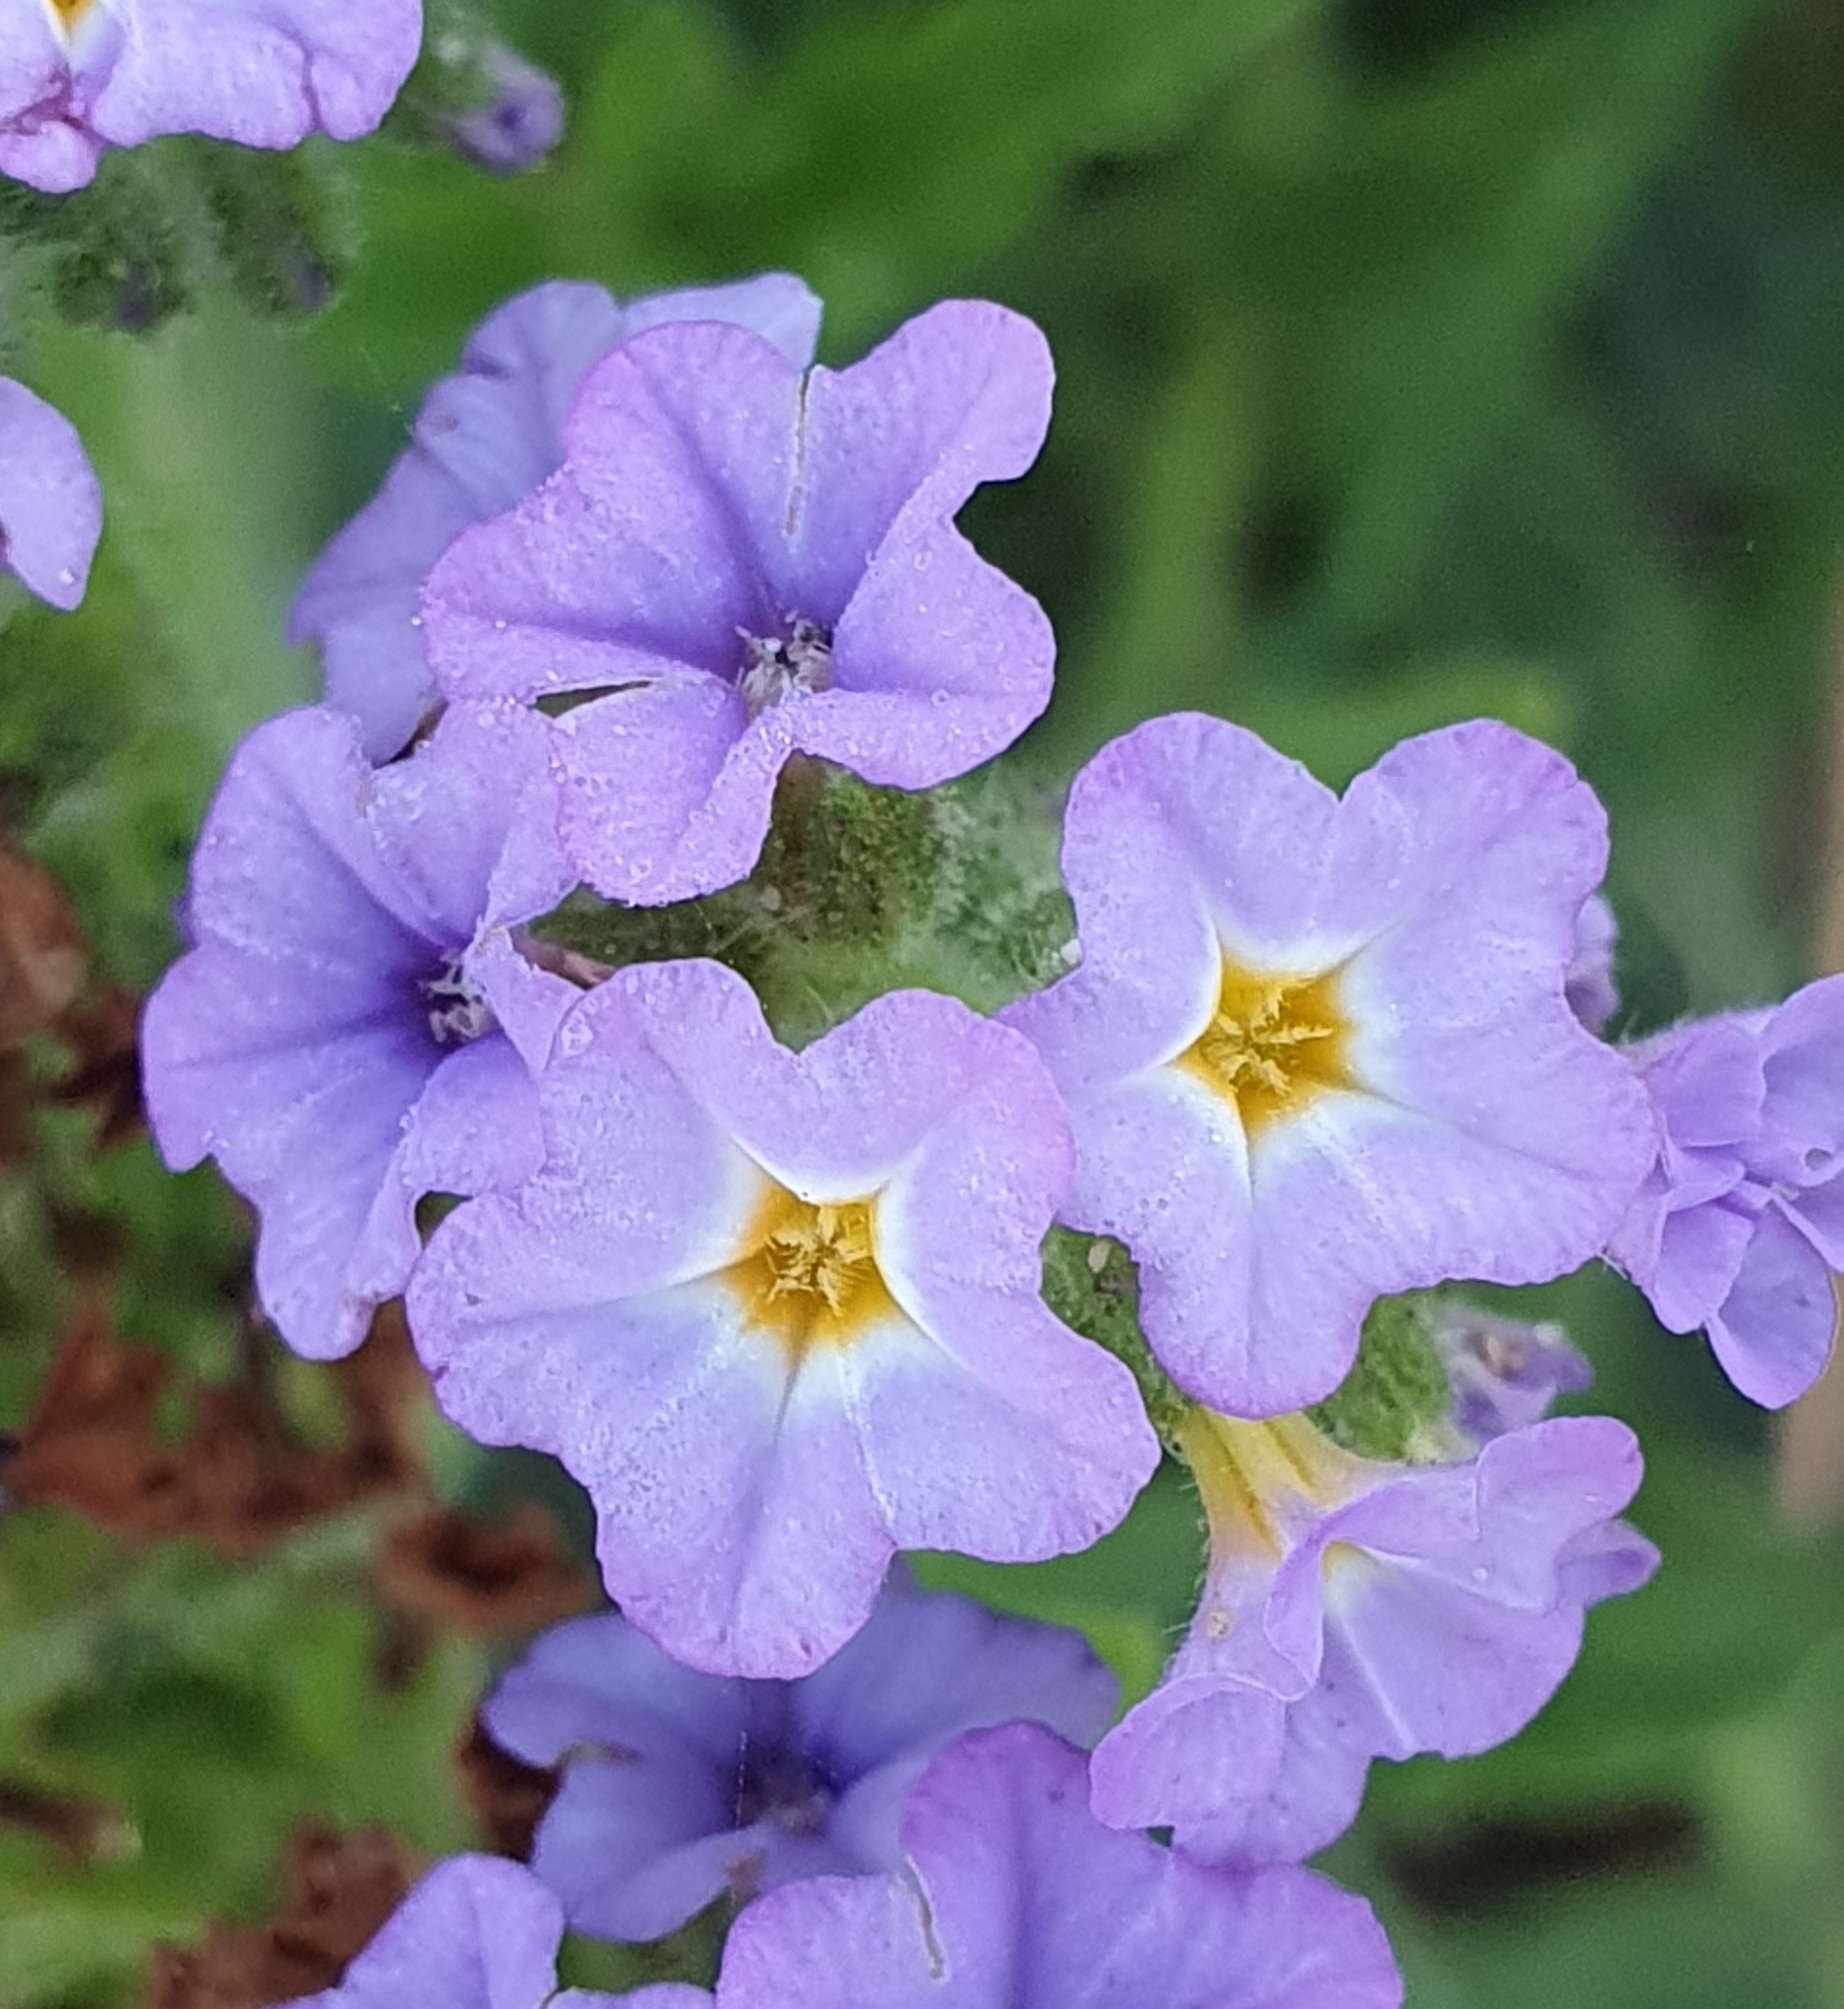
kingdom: Plantae
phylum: Tracheophyta
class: Magnoliopsida
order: Boraginales
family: Heliotropiaceae
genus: Heliotropium
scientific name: Heliotropium amplexicaule
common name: Clasping heliotrope
